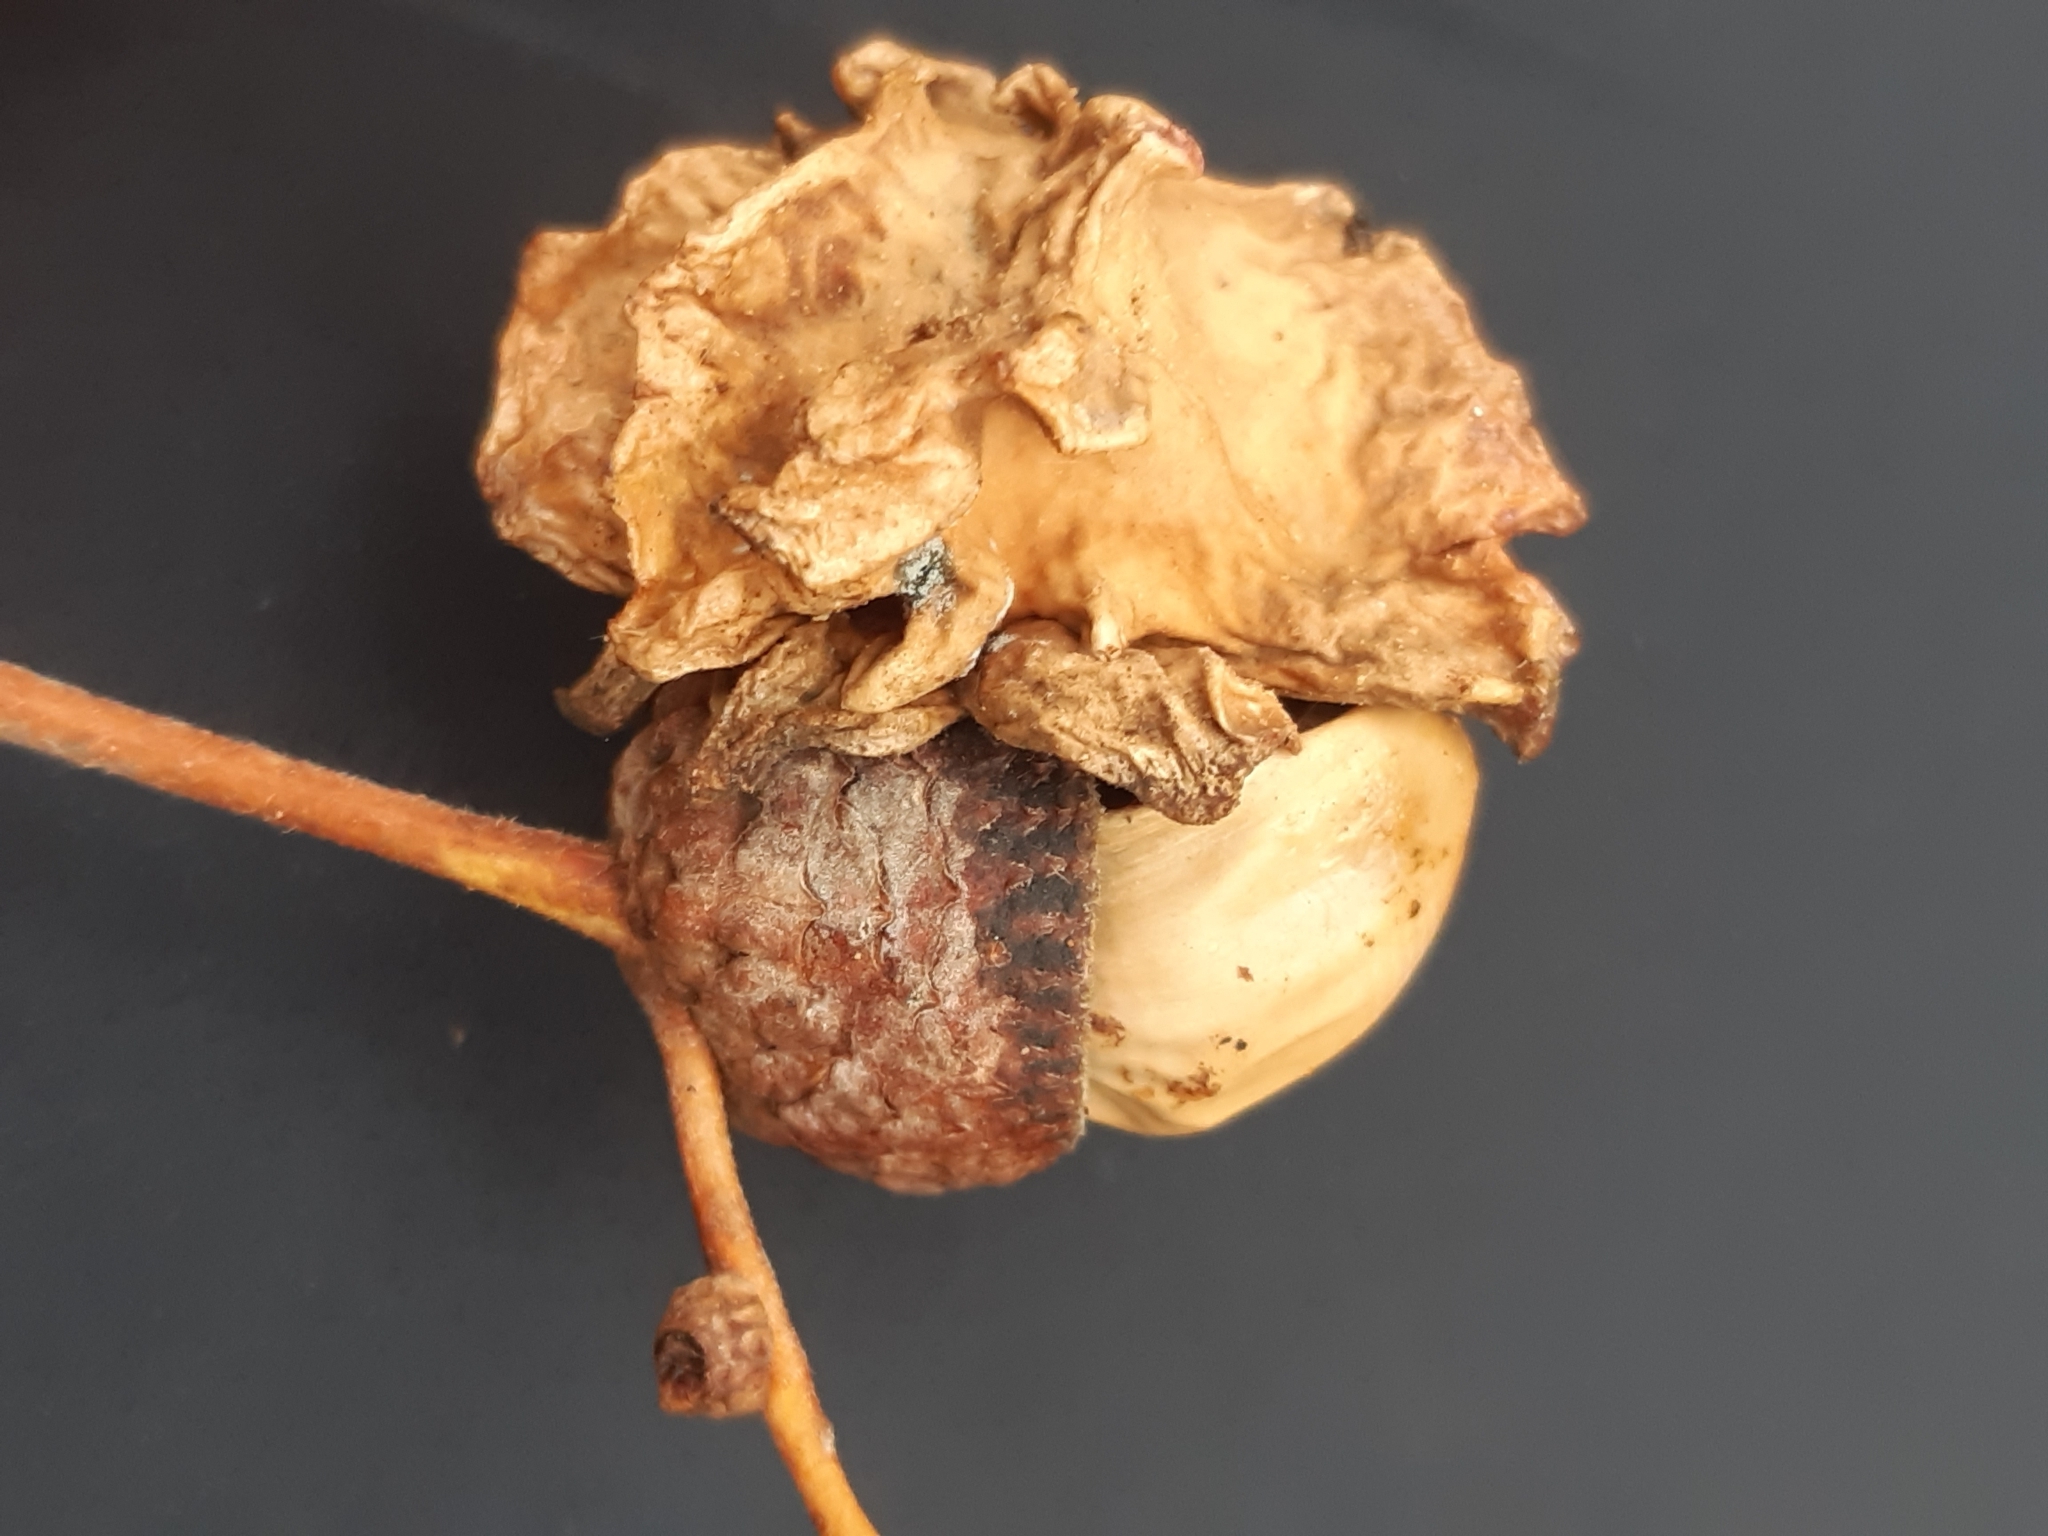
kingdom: Animalia
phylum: Arthropoda
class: Insecta
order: Hymenoptera
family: Cynipidae
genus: Andricus
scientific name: Andricus quercuscalicis
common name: Knopper gall
